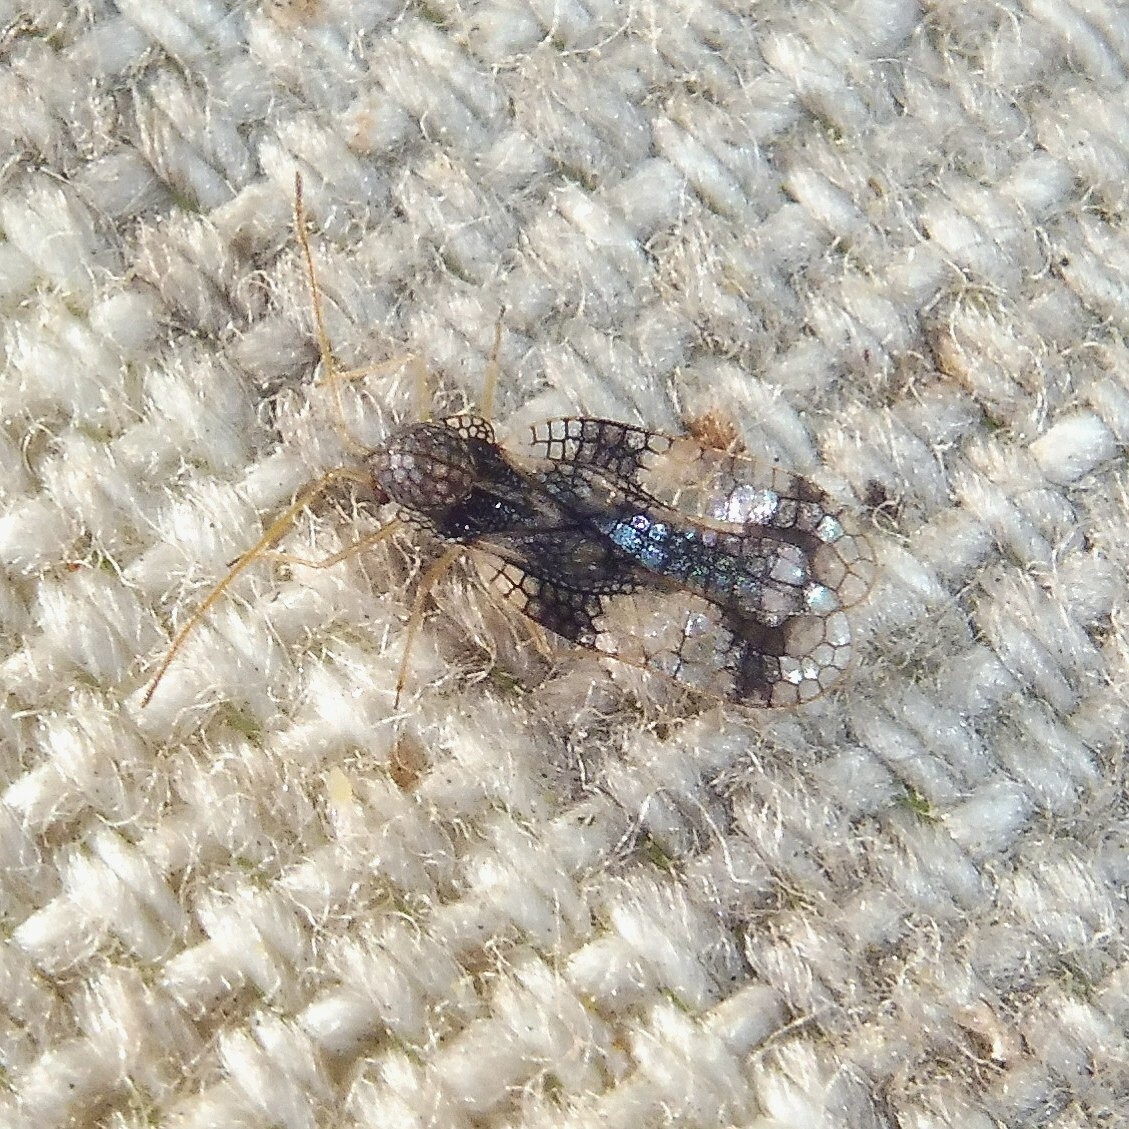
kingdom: Animalia
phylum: Arthropoda
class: Insecta
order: Hemiptera
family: Tingidae
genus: Stephanitis
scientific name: Stephanitis takeyai
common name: Andromeda lacebug
